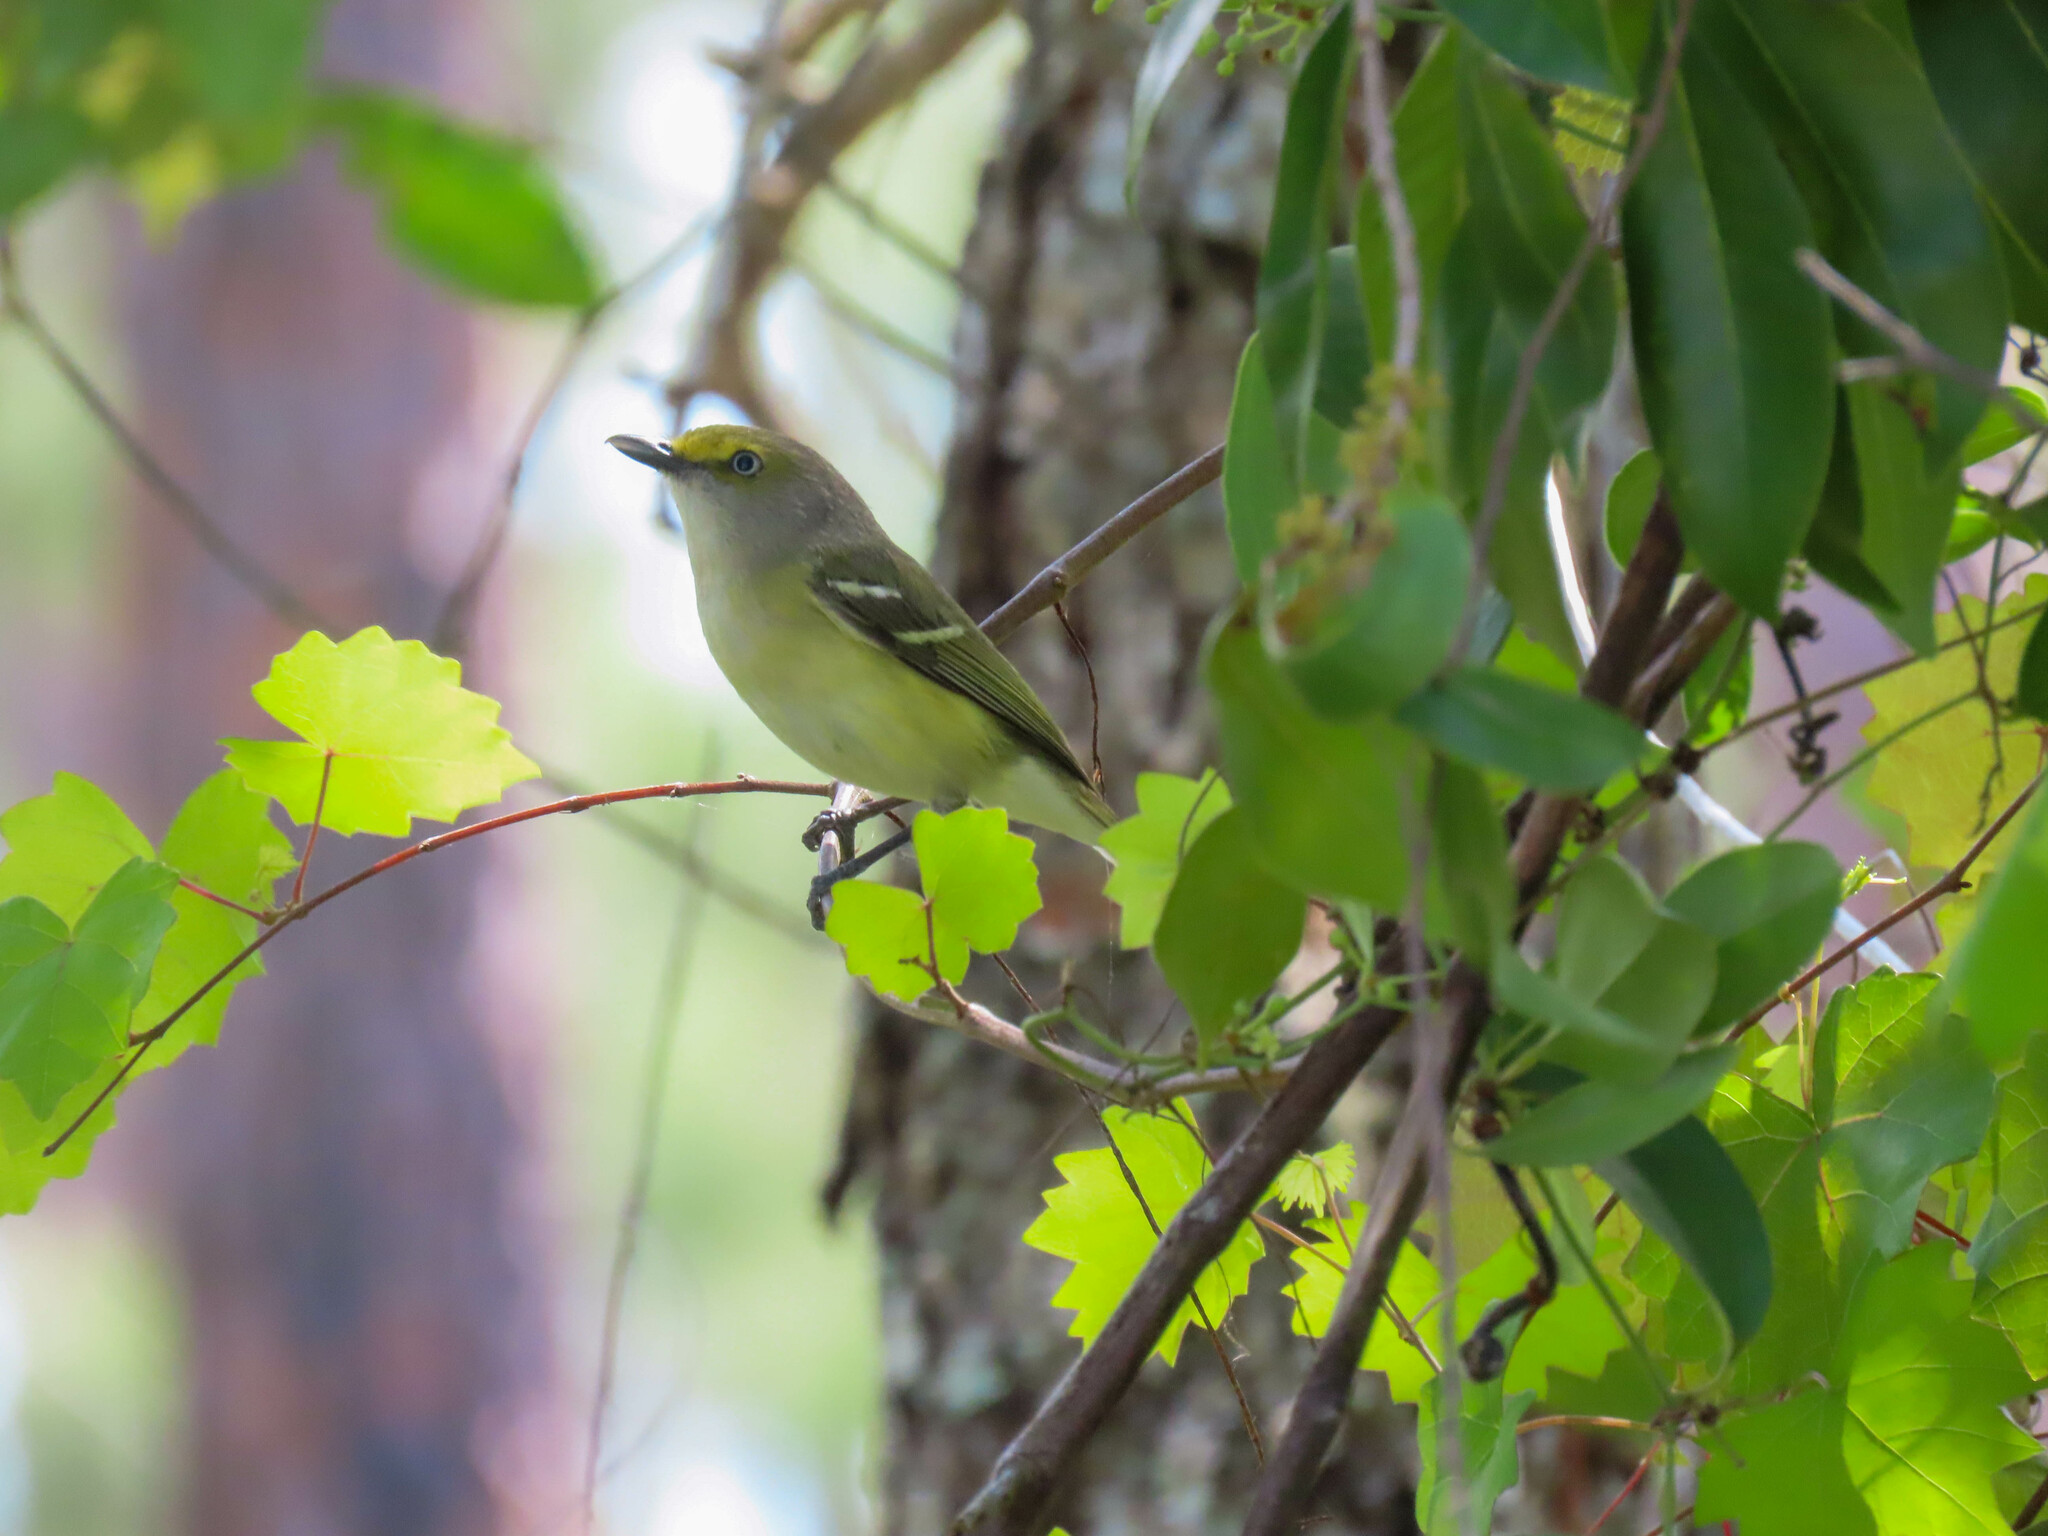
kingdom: Animalia
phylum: Chordata
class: Aves
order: Passeriformes
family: Vireonidae
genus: Vireo
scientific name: Vireo griseus
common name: White-eyed vireo
